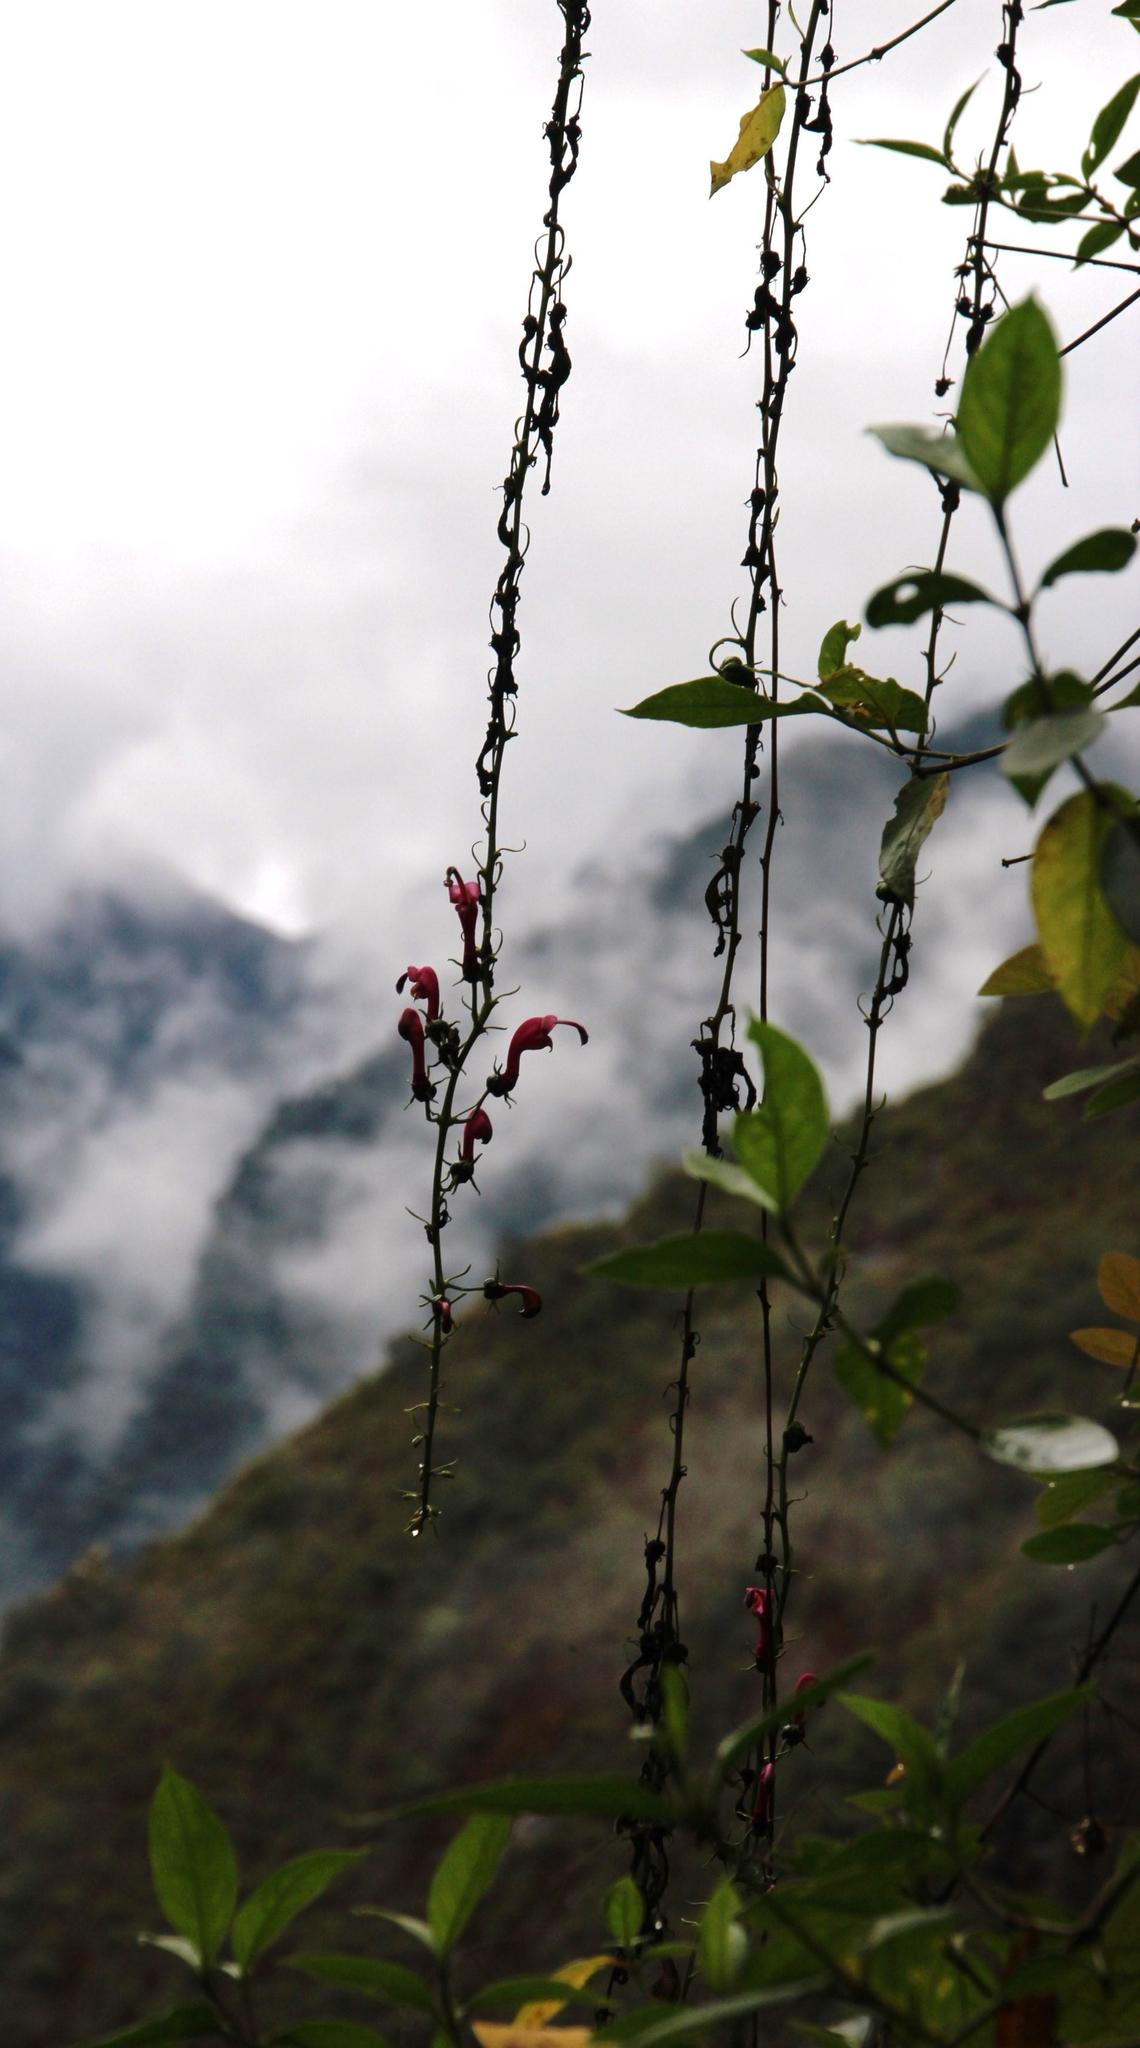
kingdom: Plantae
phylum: Tracheophyta
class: Magnoliopsida
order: Asterales
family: Campanulaceae
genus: Centropogon
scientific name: Centropogon urubambae
